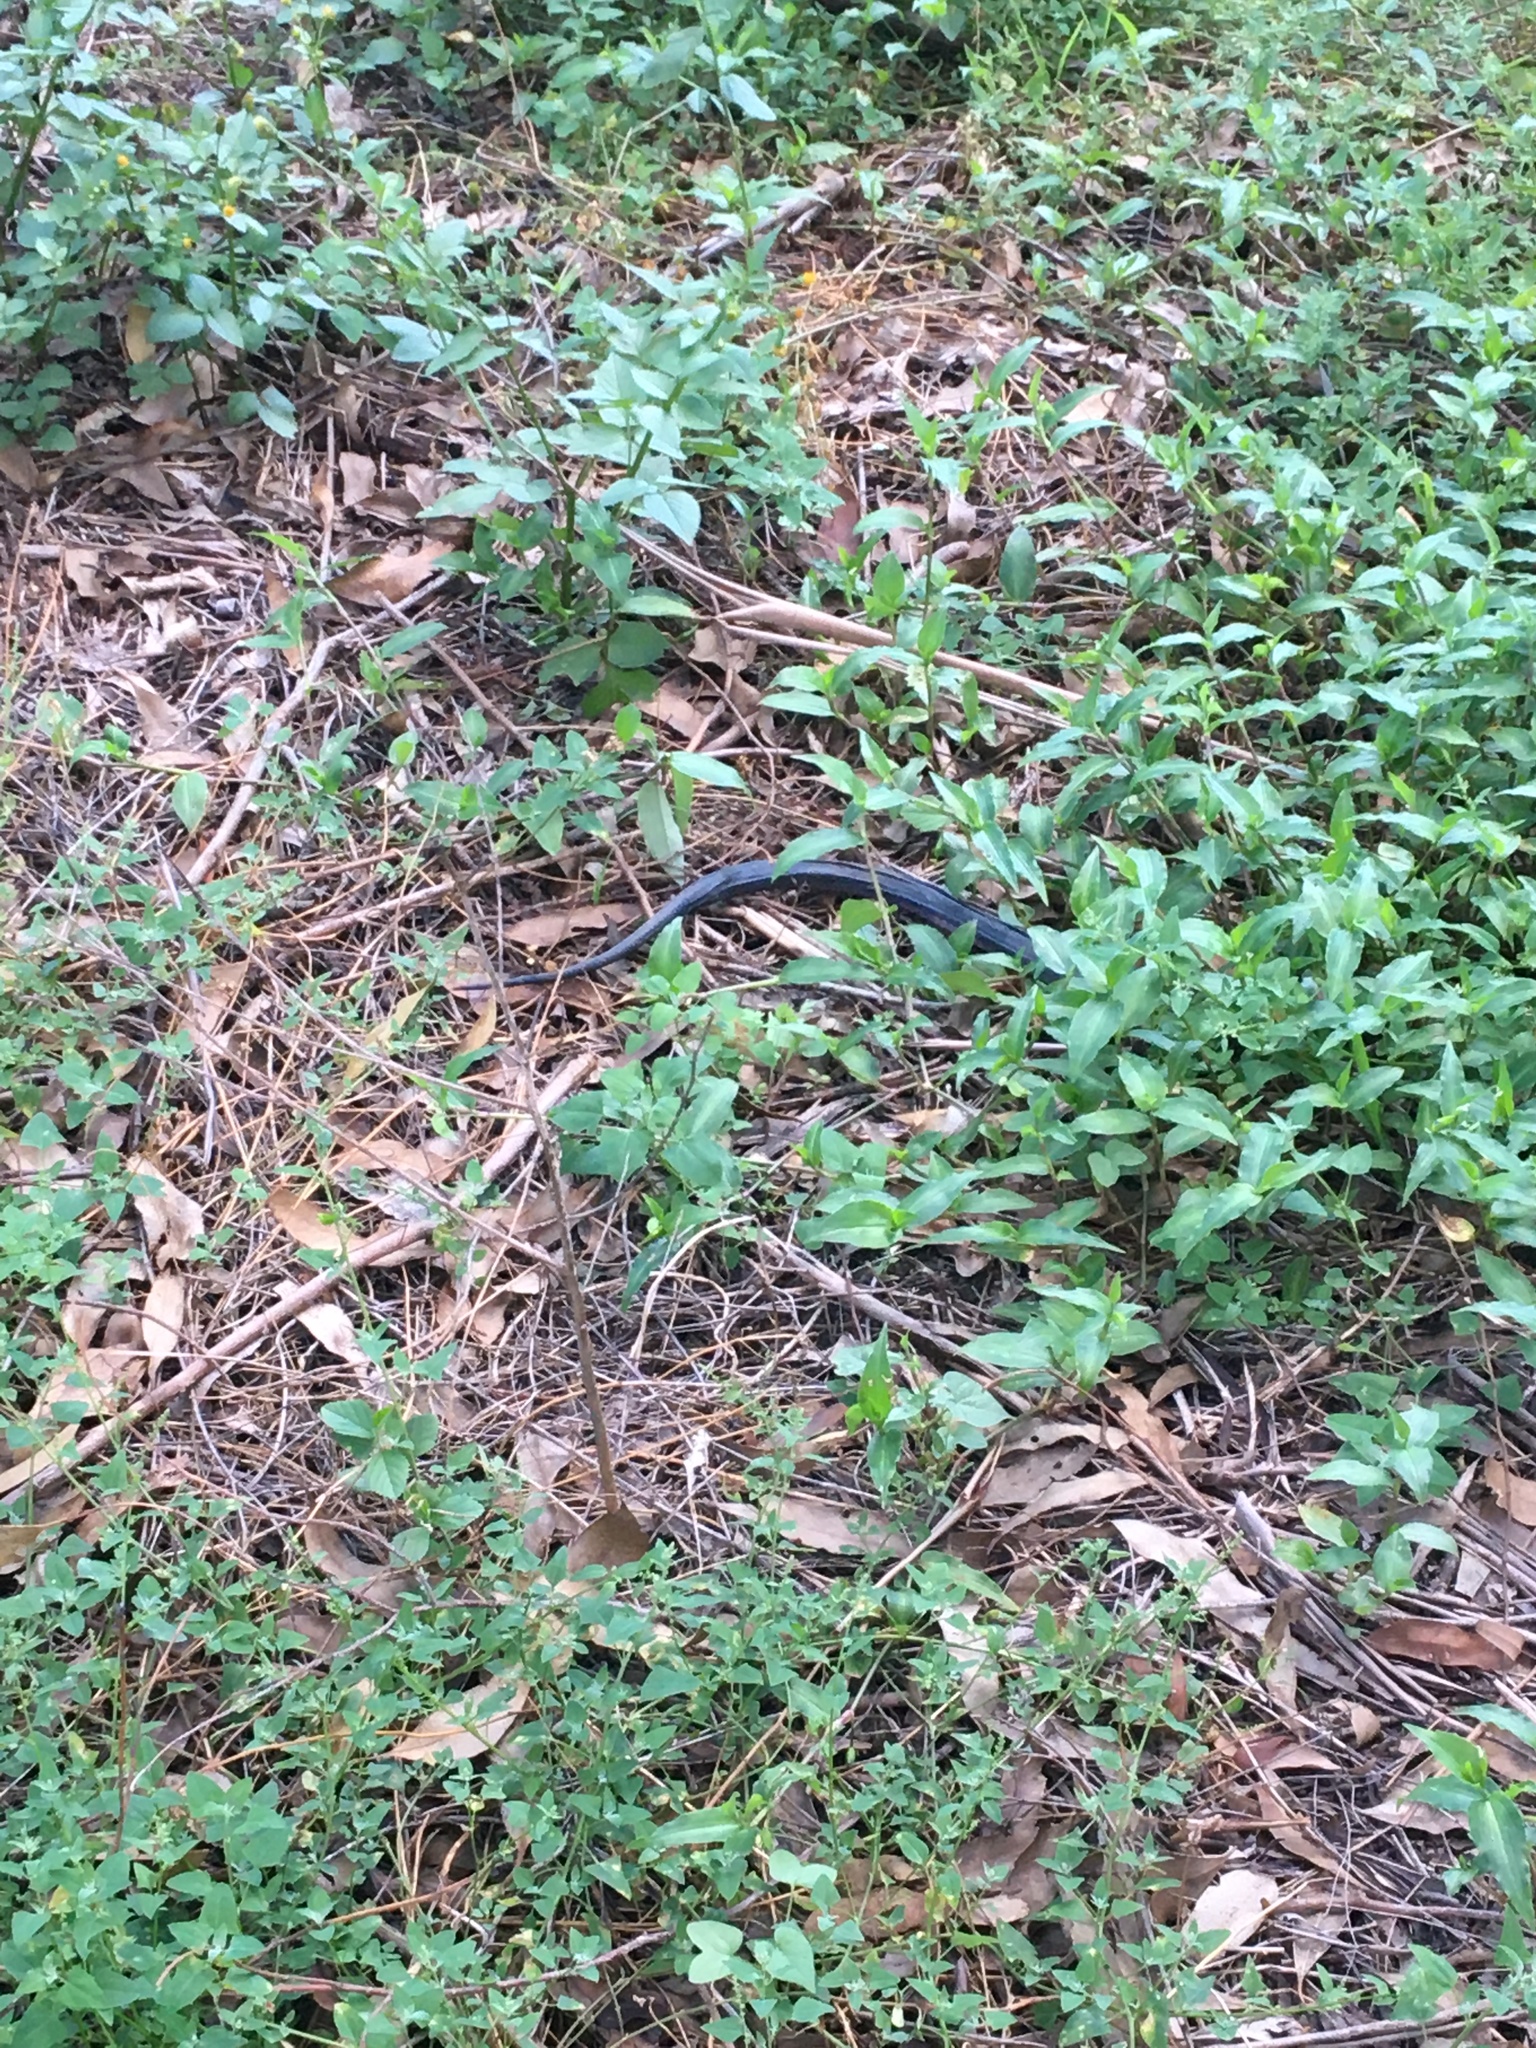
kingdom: Animalia
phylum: Chordata
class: Squamata
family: Elapidae
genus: Pseudechis
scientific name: Pseudechis porphyriacus
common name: Australian black snake
